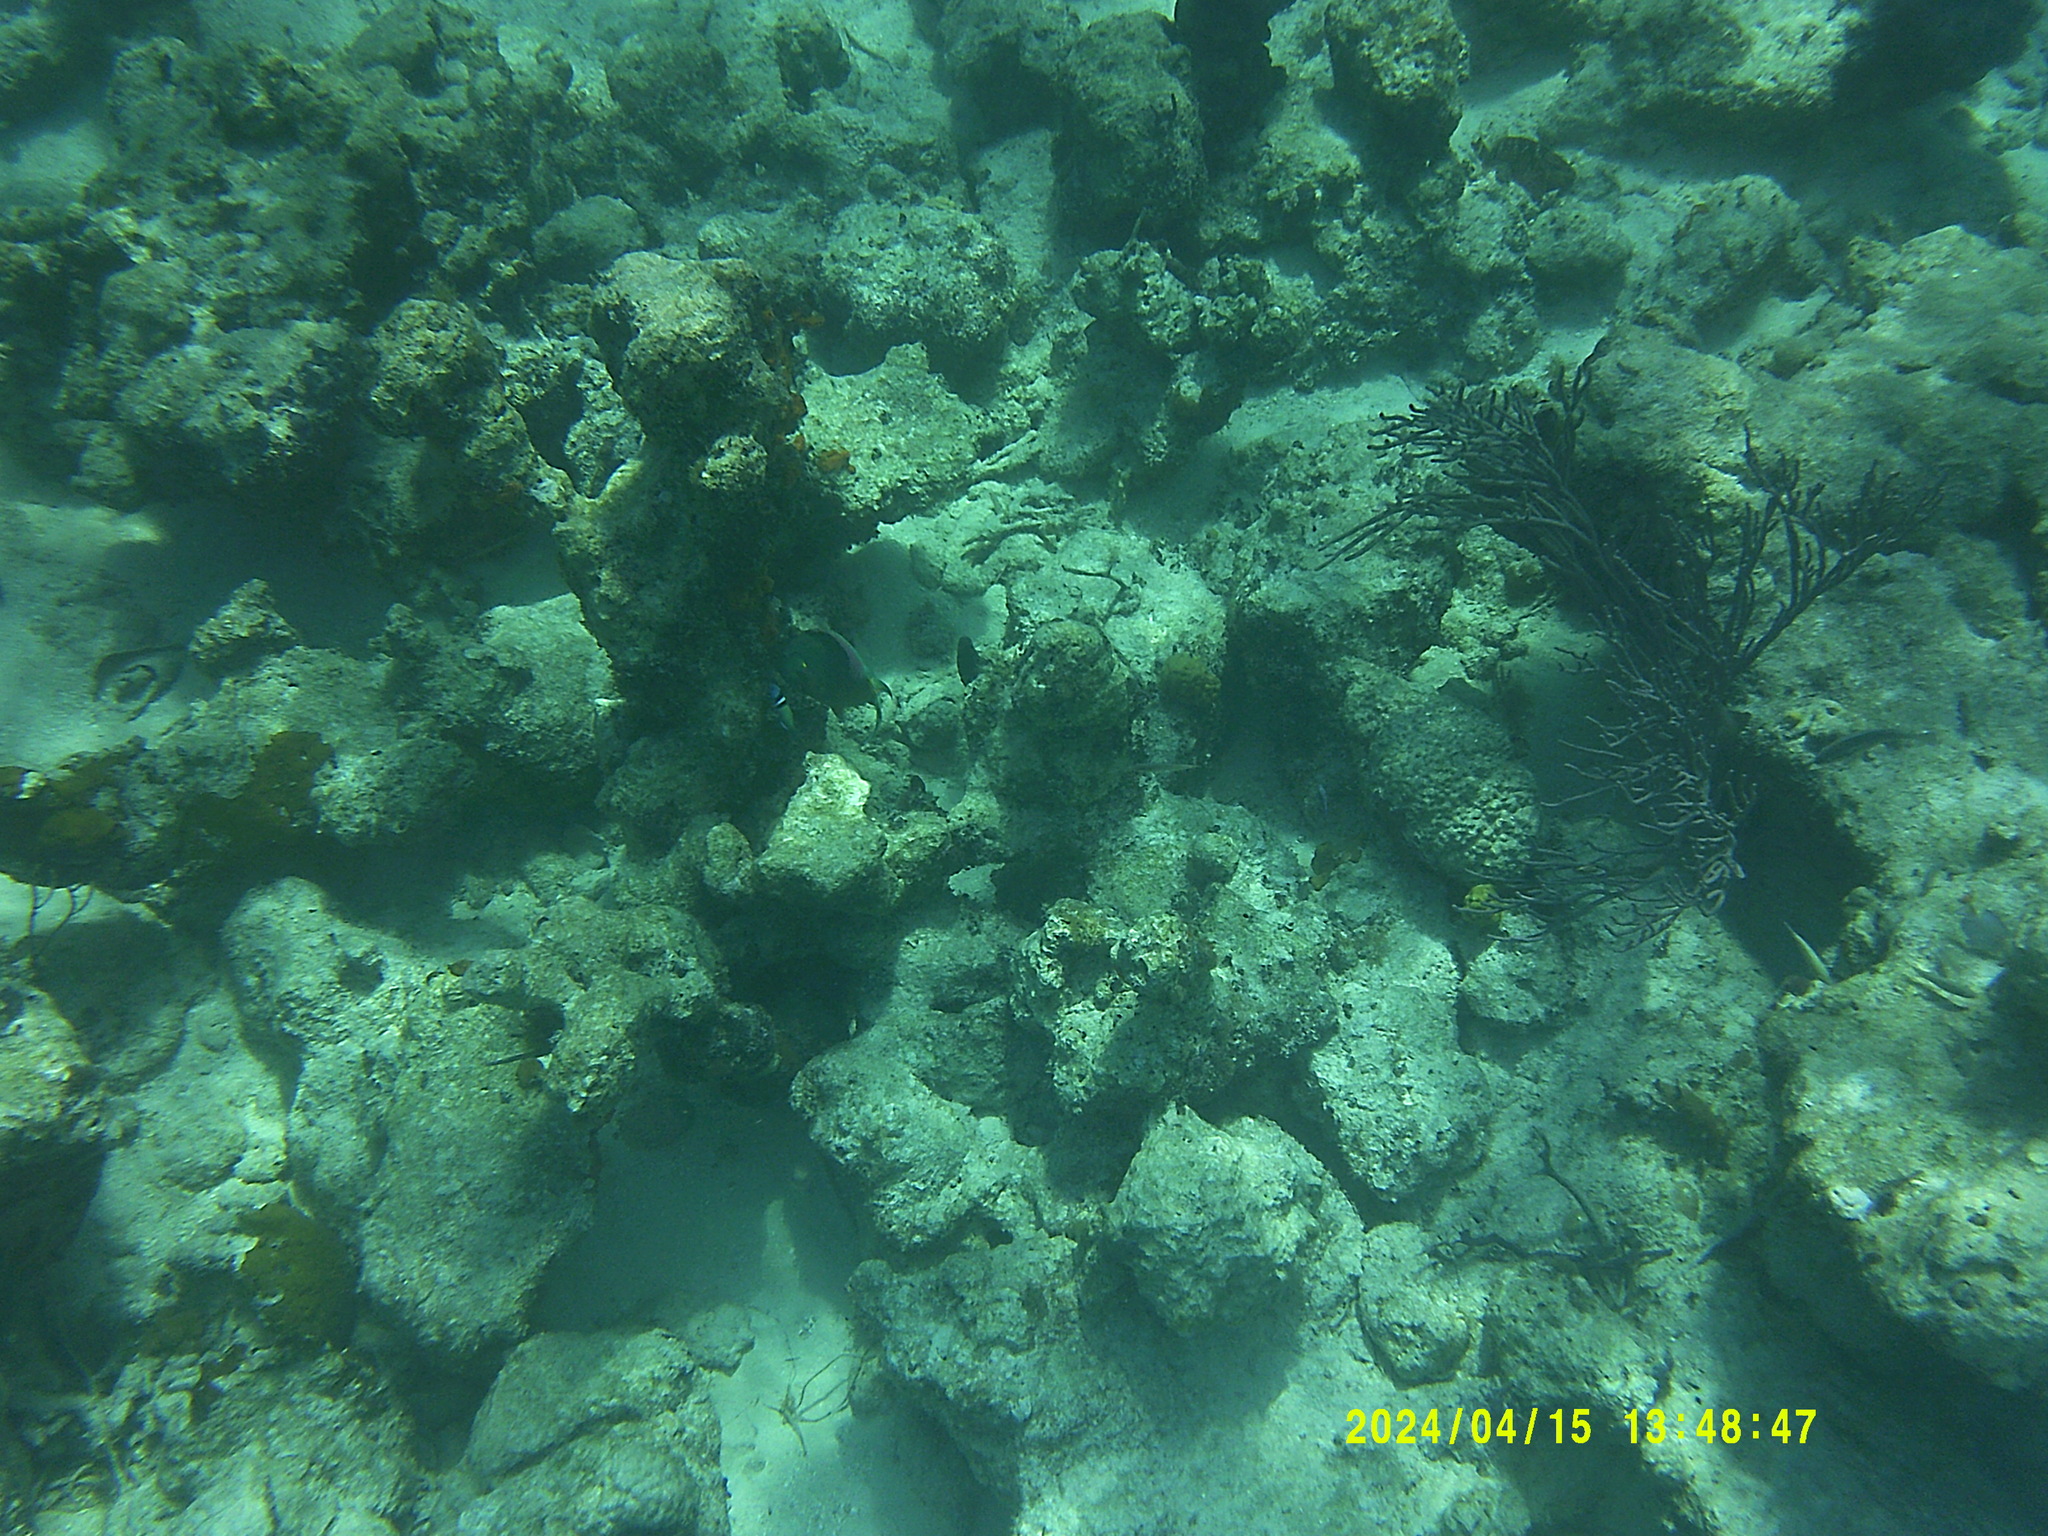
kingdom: Animalia
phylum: Chordata
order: Perciformes
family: Scaridae
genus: Sparisoma
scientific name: Sparisoma viride
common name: Stoplight parrotfish
